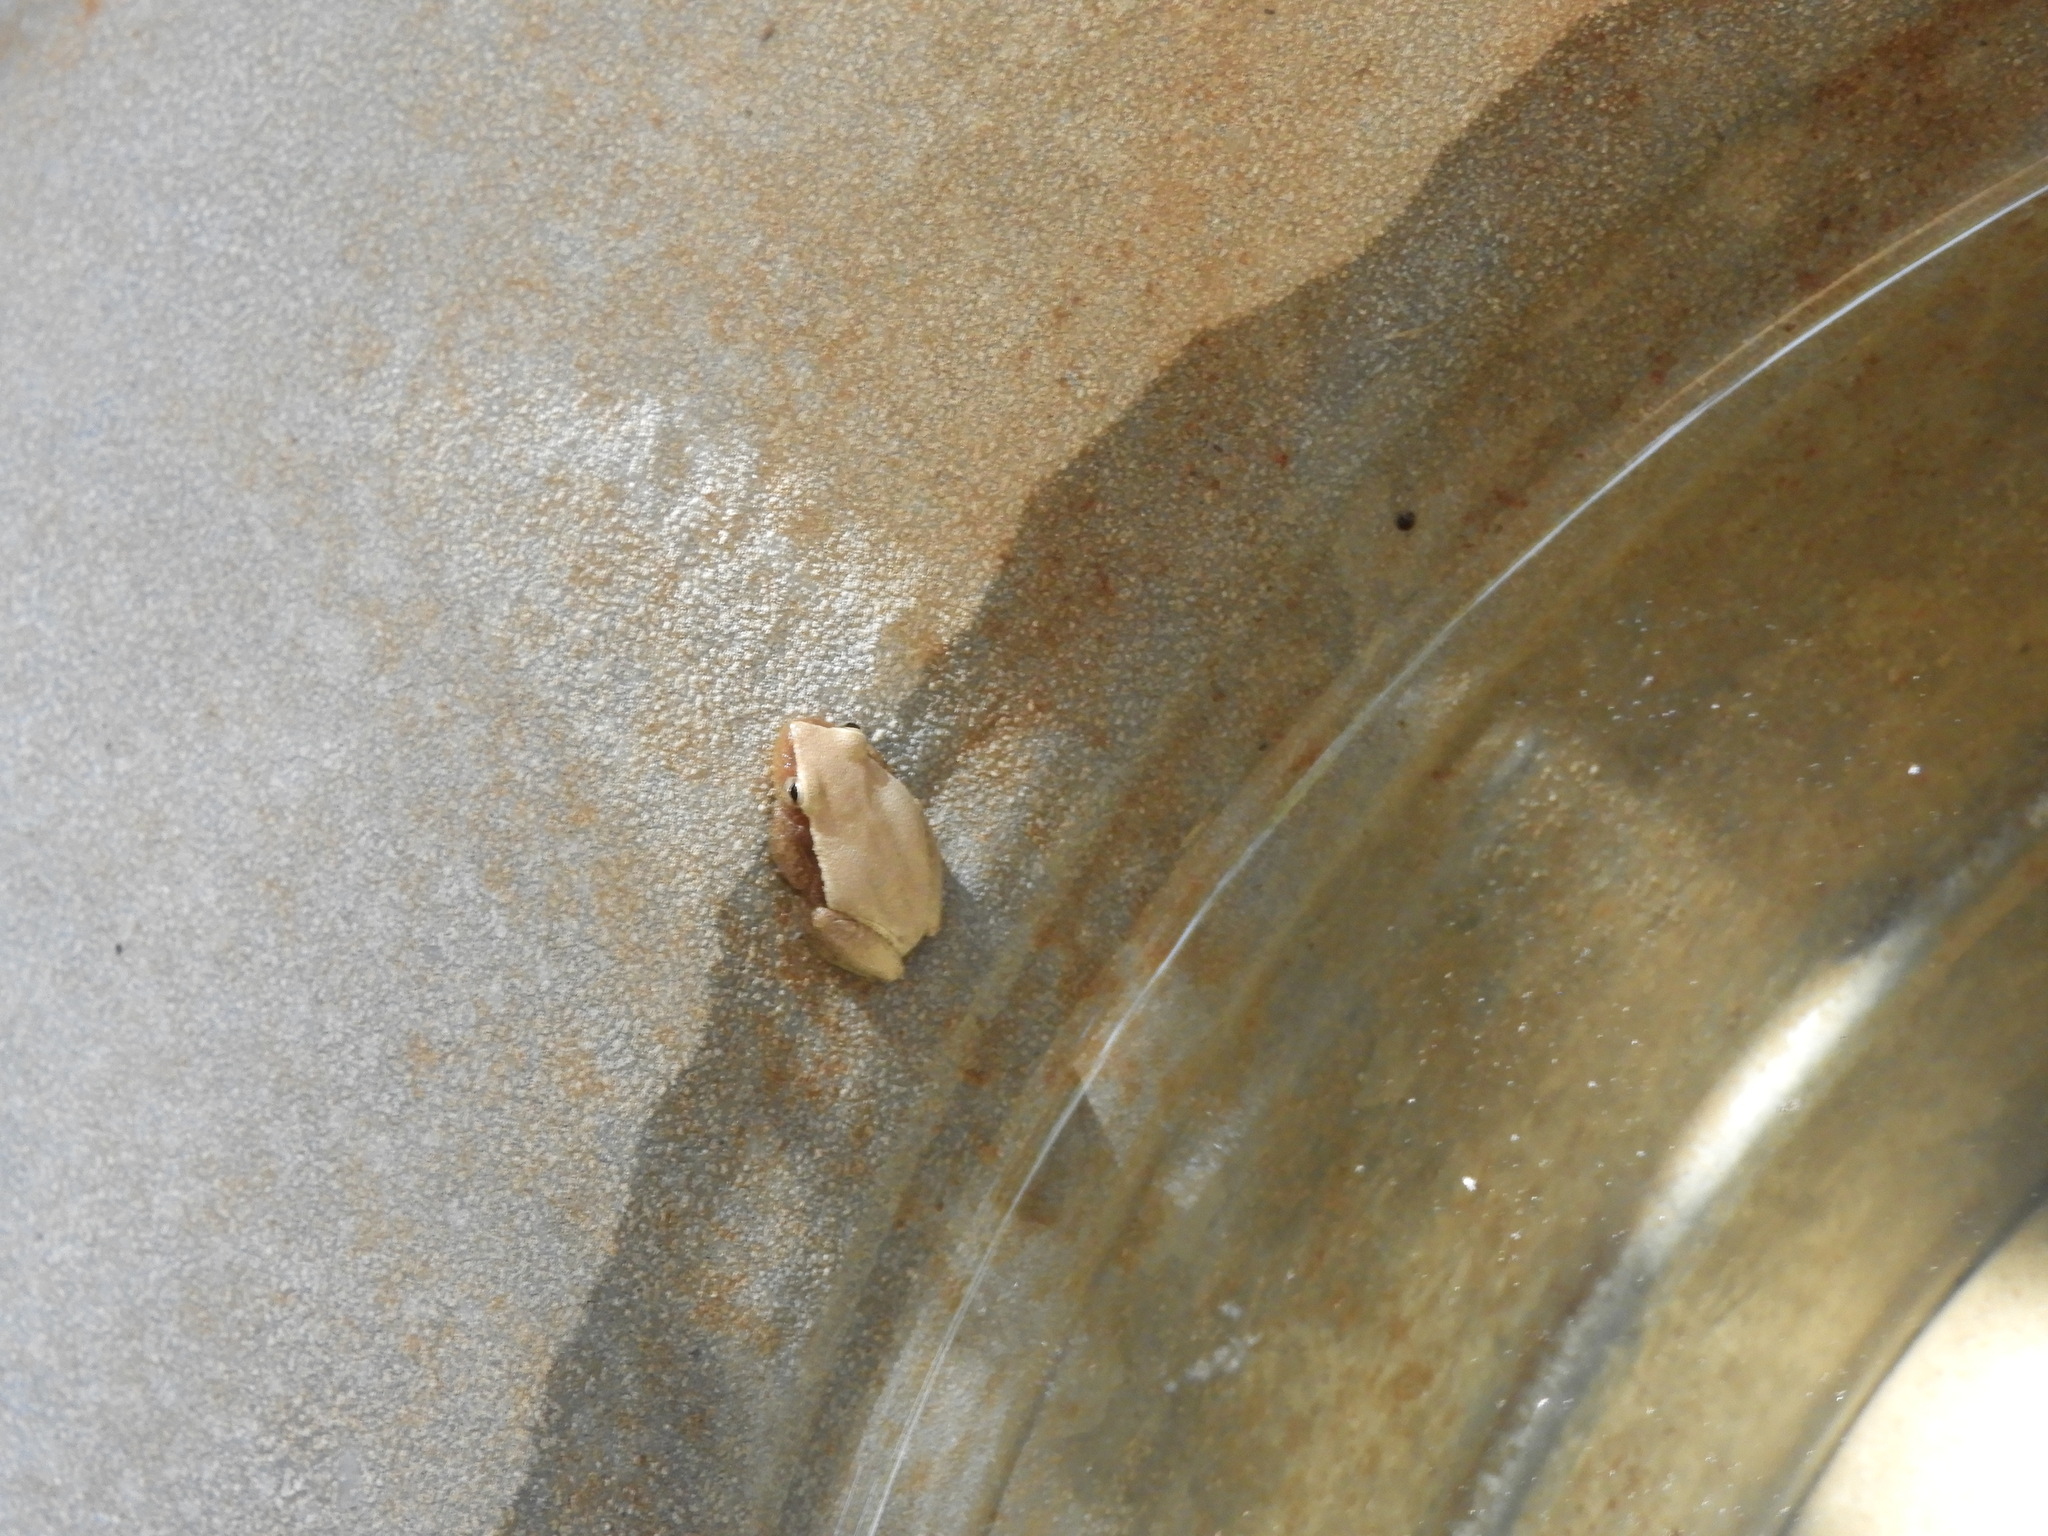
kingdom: Animalia
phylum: Chordata
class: Amphibia
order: Anura
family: Hylidae
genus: Tlalocohyla
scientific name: Tlalocohyla smithii
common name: Dwarf mexican treefrog
